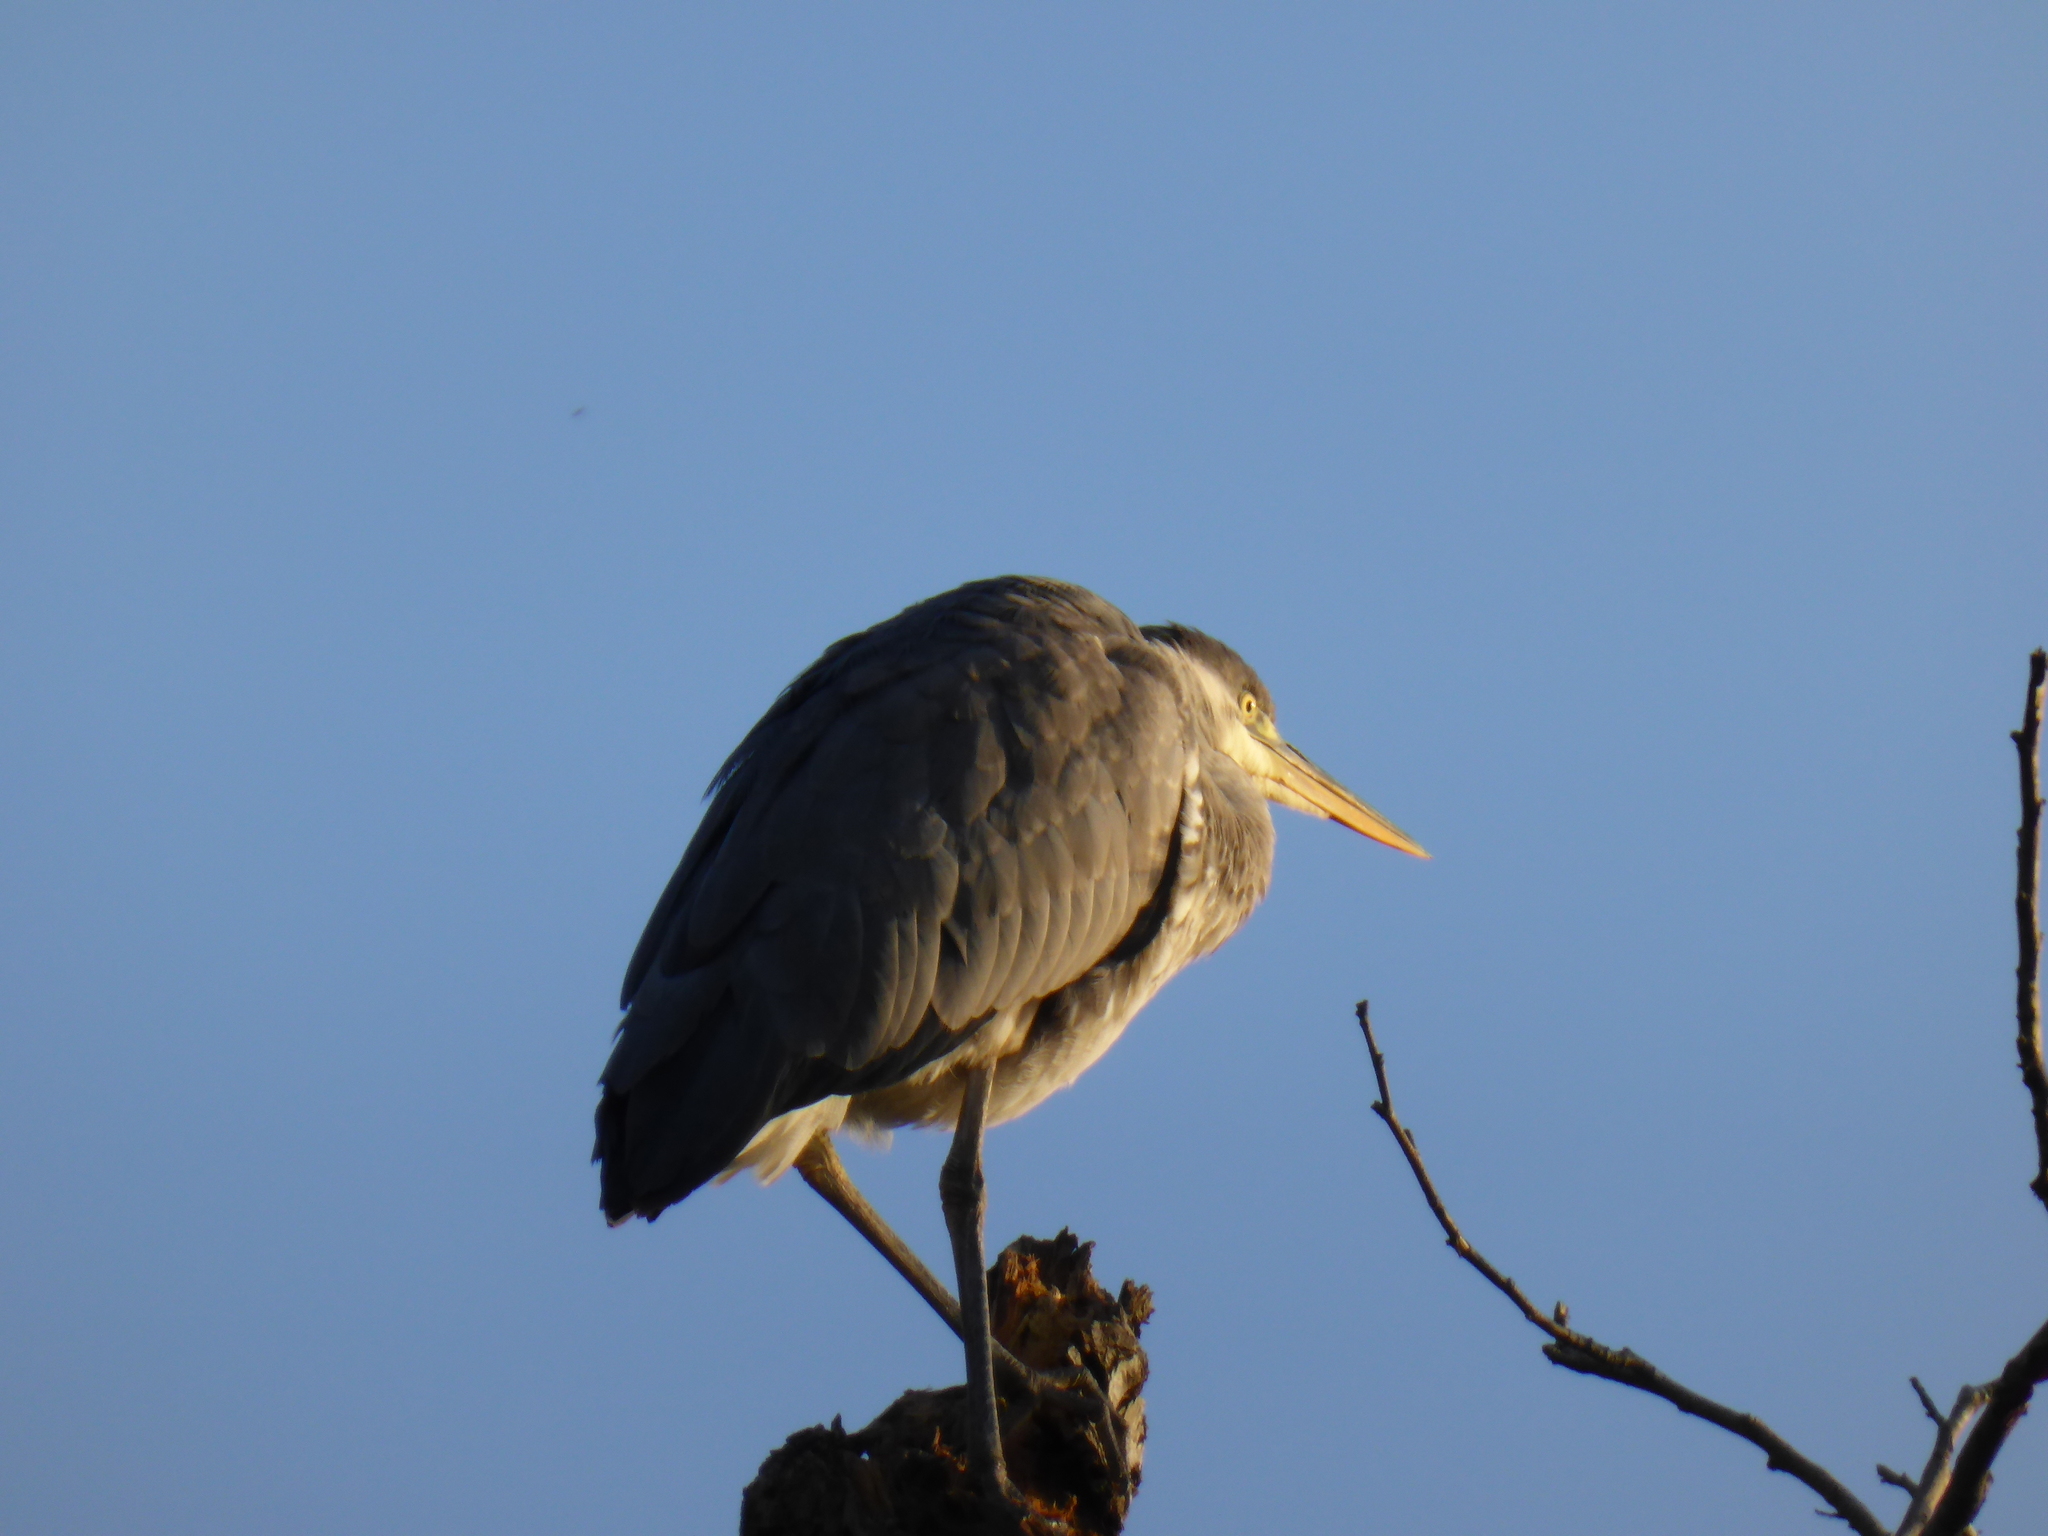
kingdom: Animalia
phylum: Chordata
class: Aves
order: Pelecaniformes
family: Ardeidae
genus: Ardea
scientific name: Ardea cinerea
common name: Grey heron
